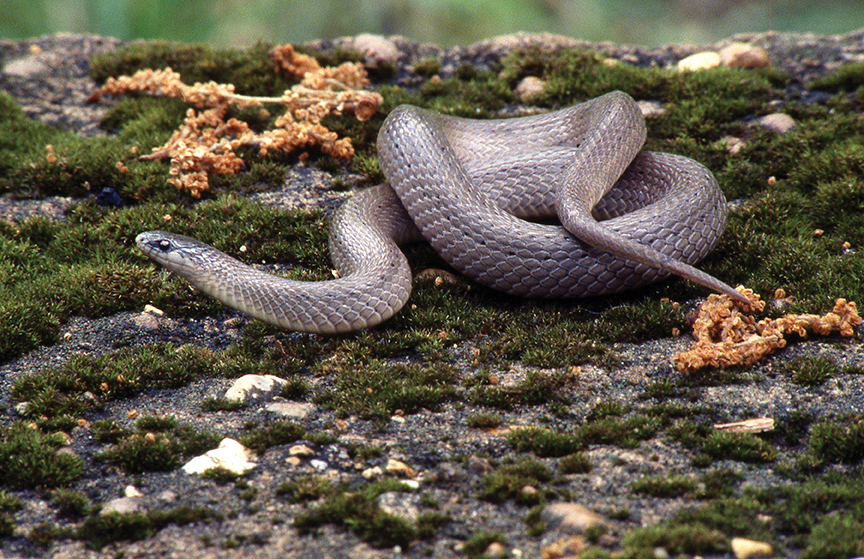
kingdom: Animalia
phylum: Chordata
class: Squamata
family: Colubridae
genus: Virginia
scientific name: Virginia valeriae
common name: Smooth earth snake
